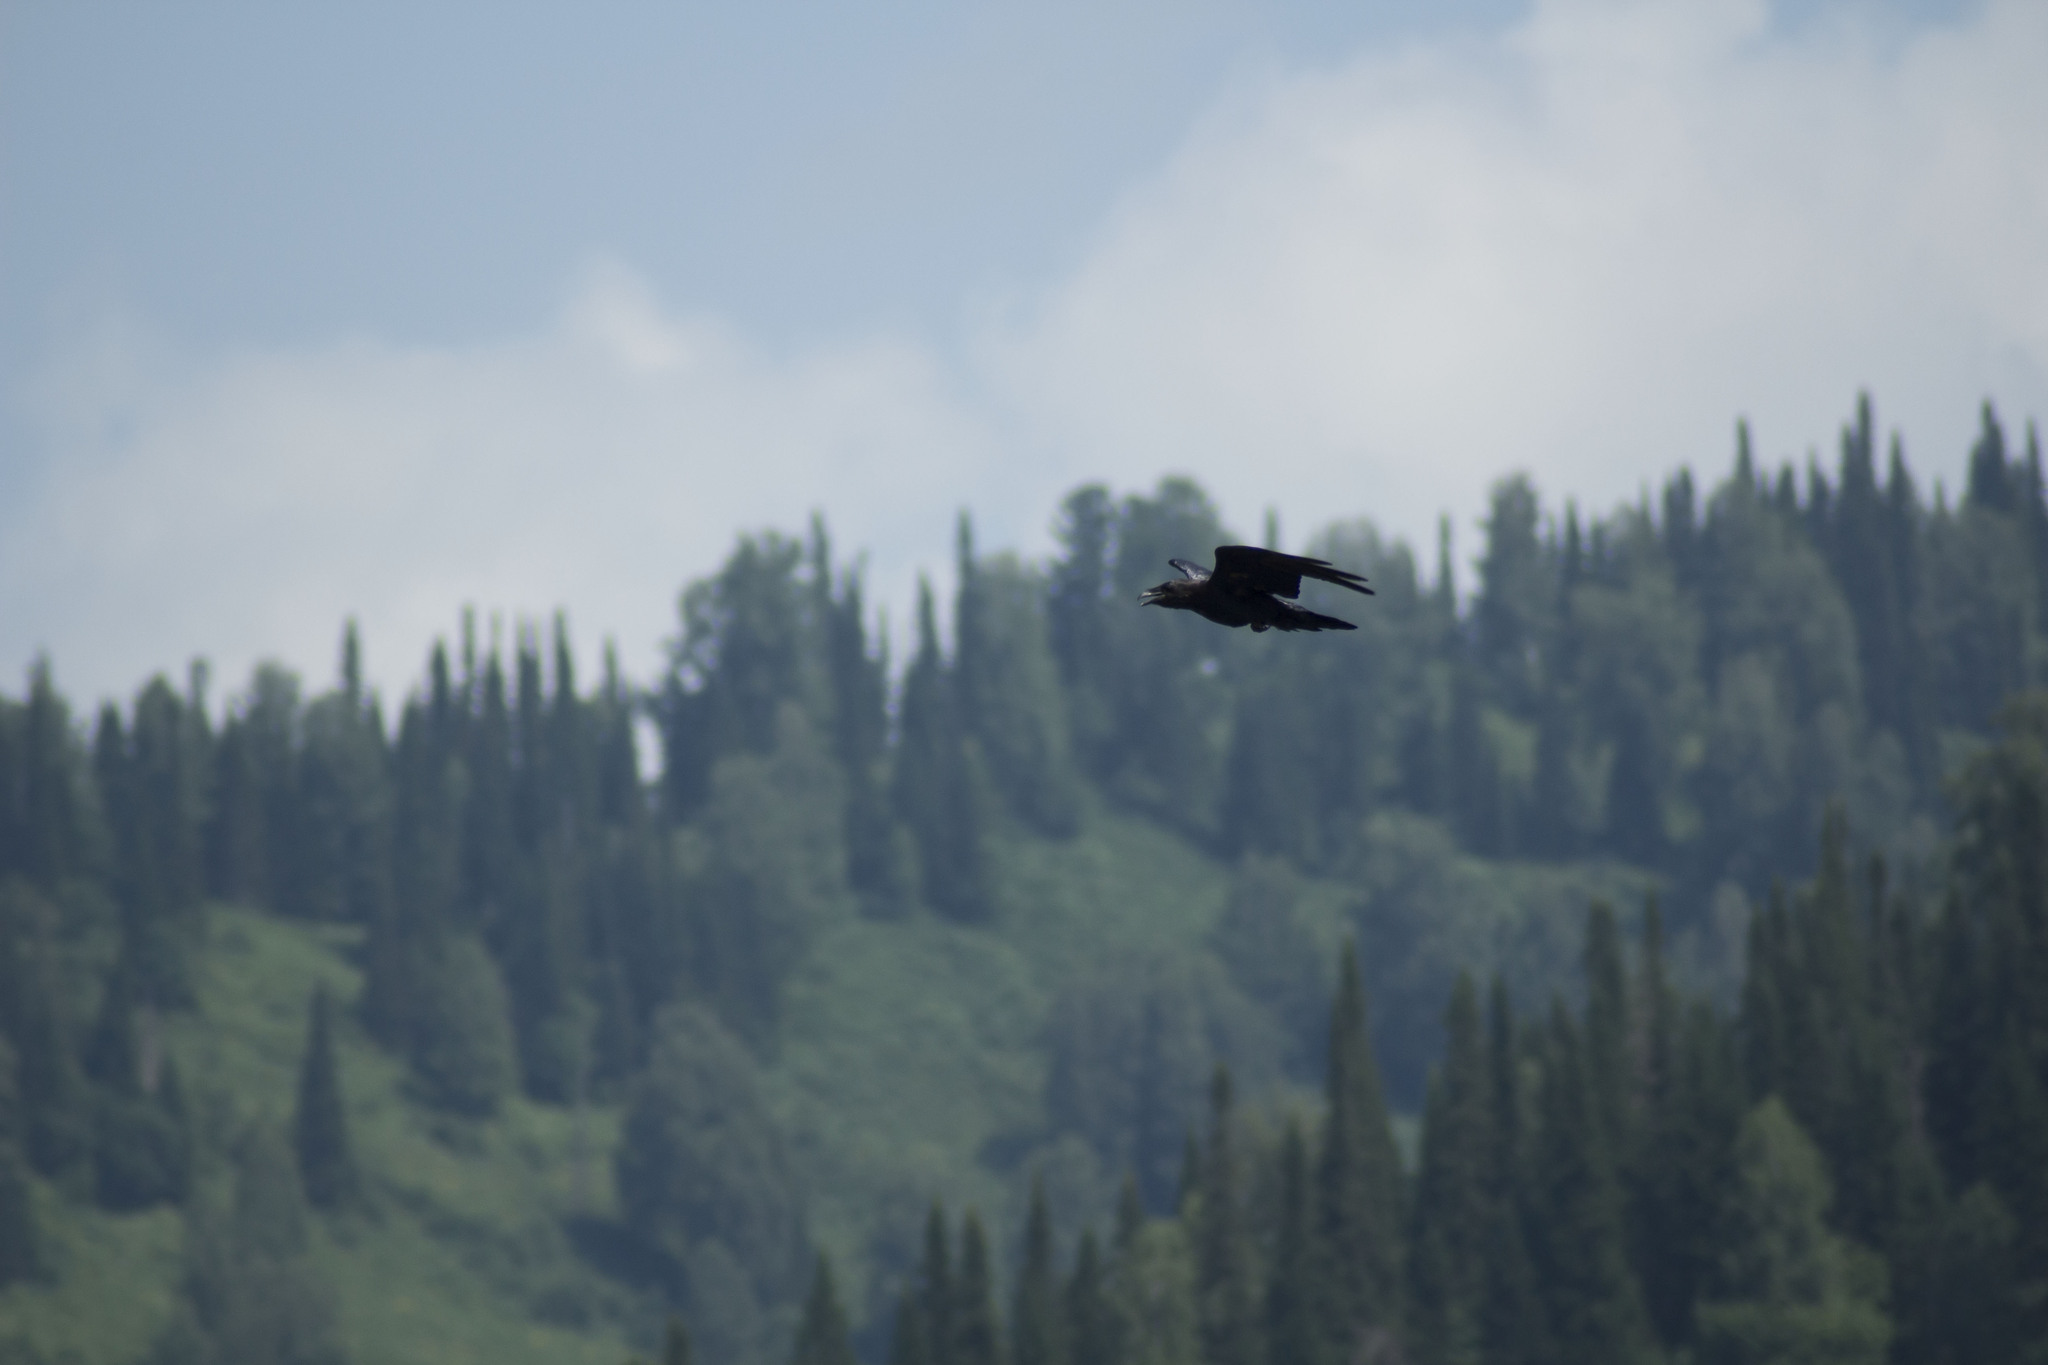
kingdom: Animalia
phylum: Chordata
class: Aves
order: Passeriformes
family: Corvidae
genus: Corvus
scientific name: Corvus corax
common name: Common raven
